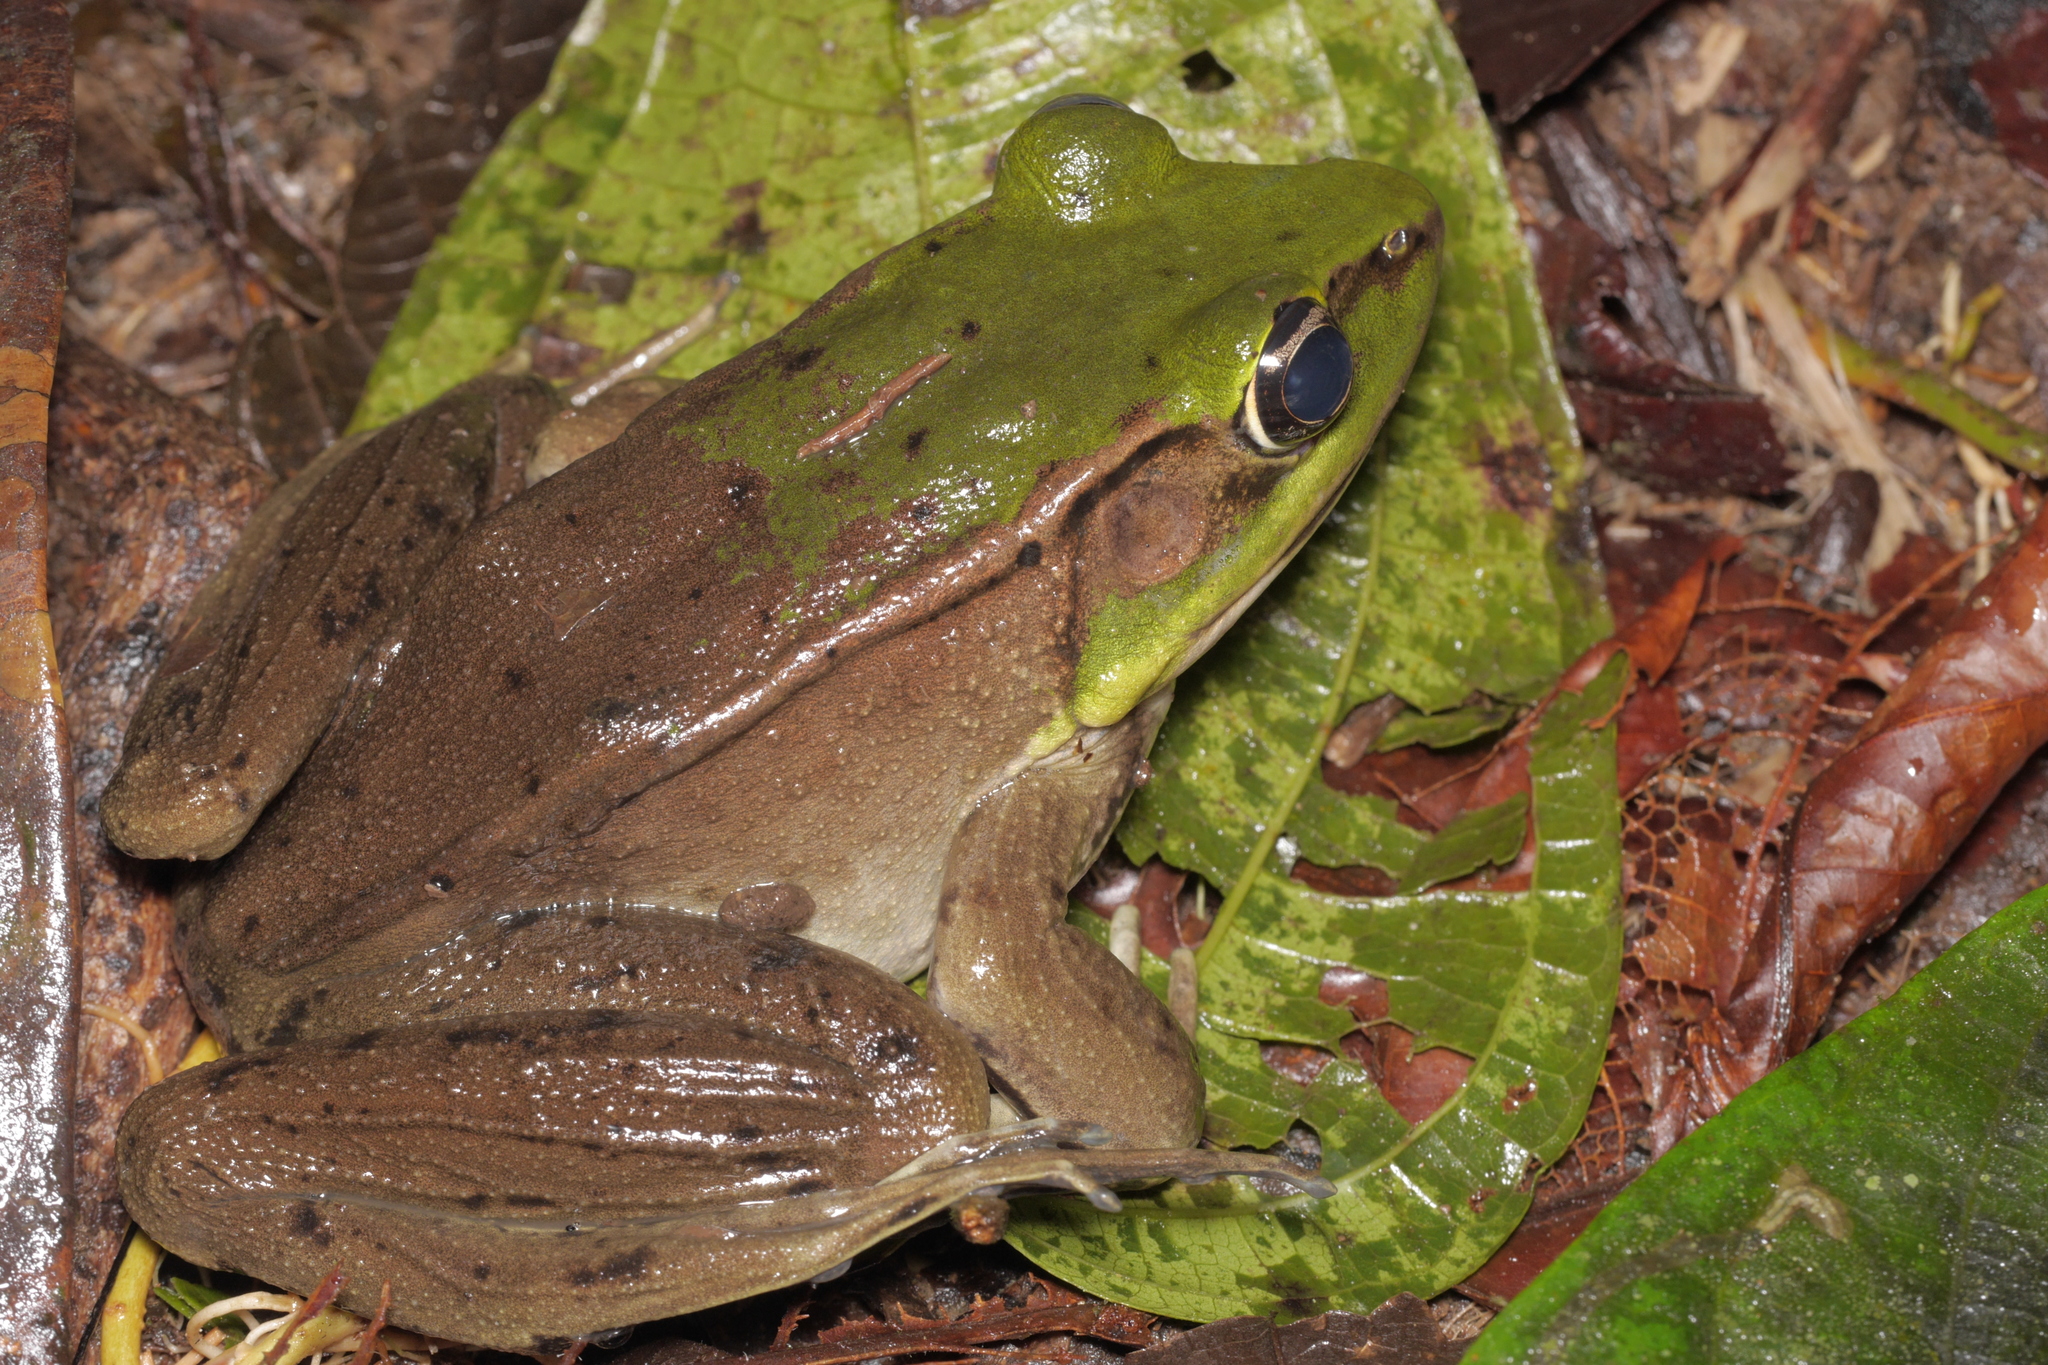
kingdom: Animalia
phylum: Chordata
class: Amphibia
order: Anura
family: Ranidae
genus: Lithobates
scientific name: Lithobates vaillanti
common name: Vaillant's frog
